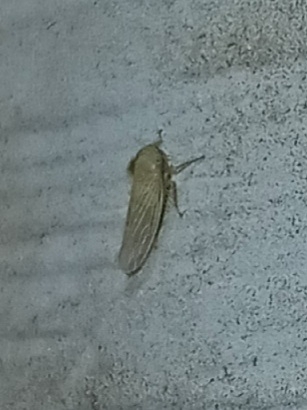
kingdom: Animalia
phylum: Arthropoda
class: Insecta
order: Hemiptera
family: Cicadellidae
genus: Graminella
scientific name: Graminella nigrifrons
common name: Blackfaced leafhopper
